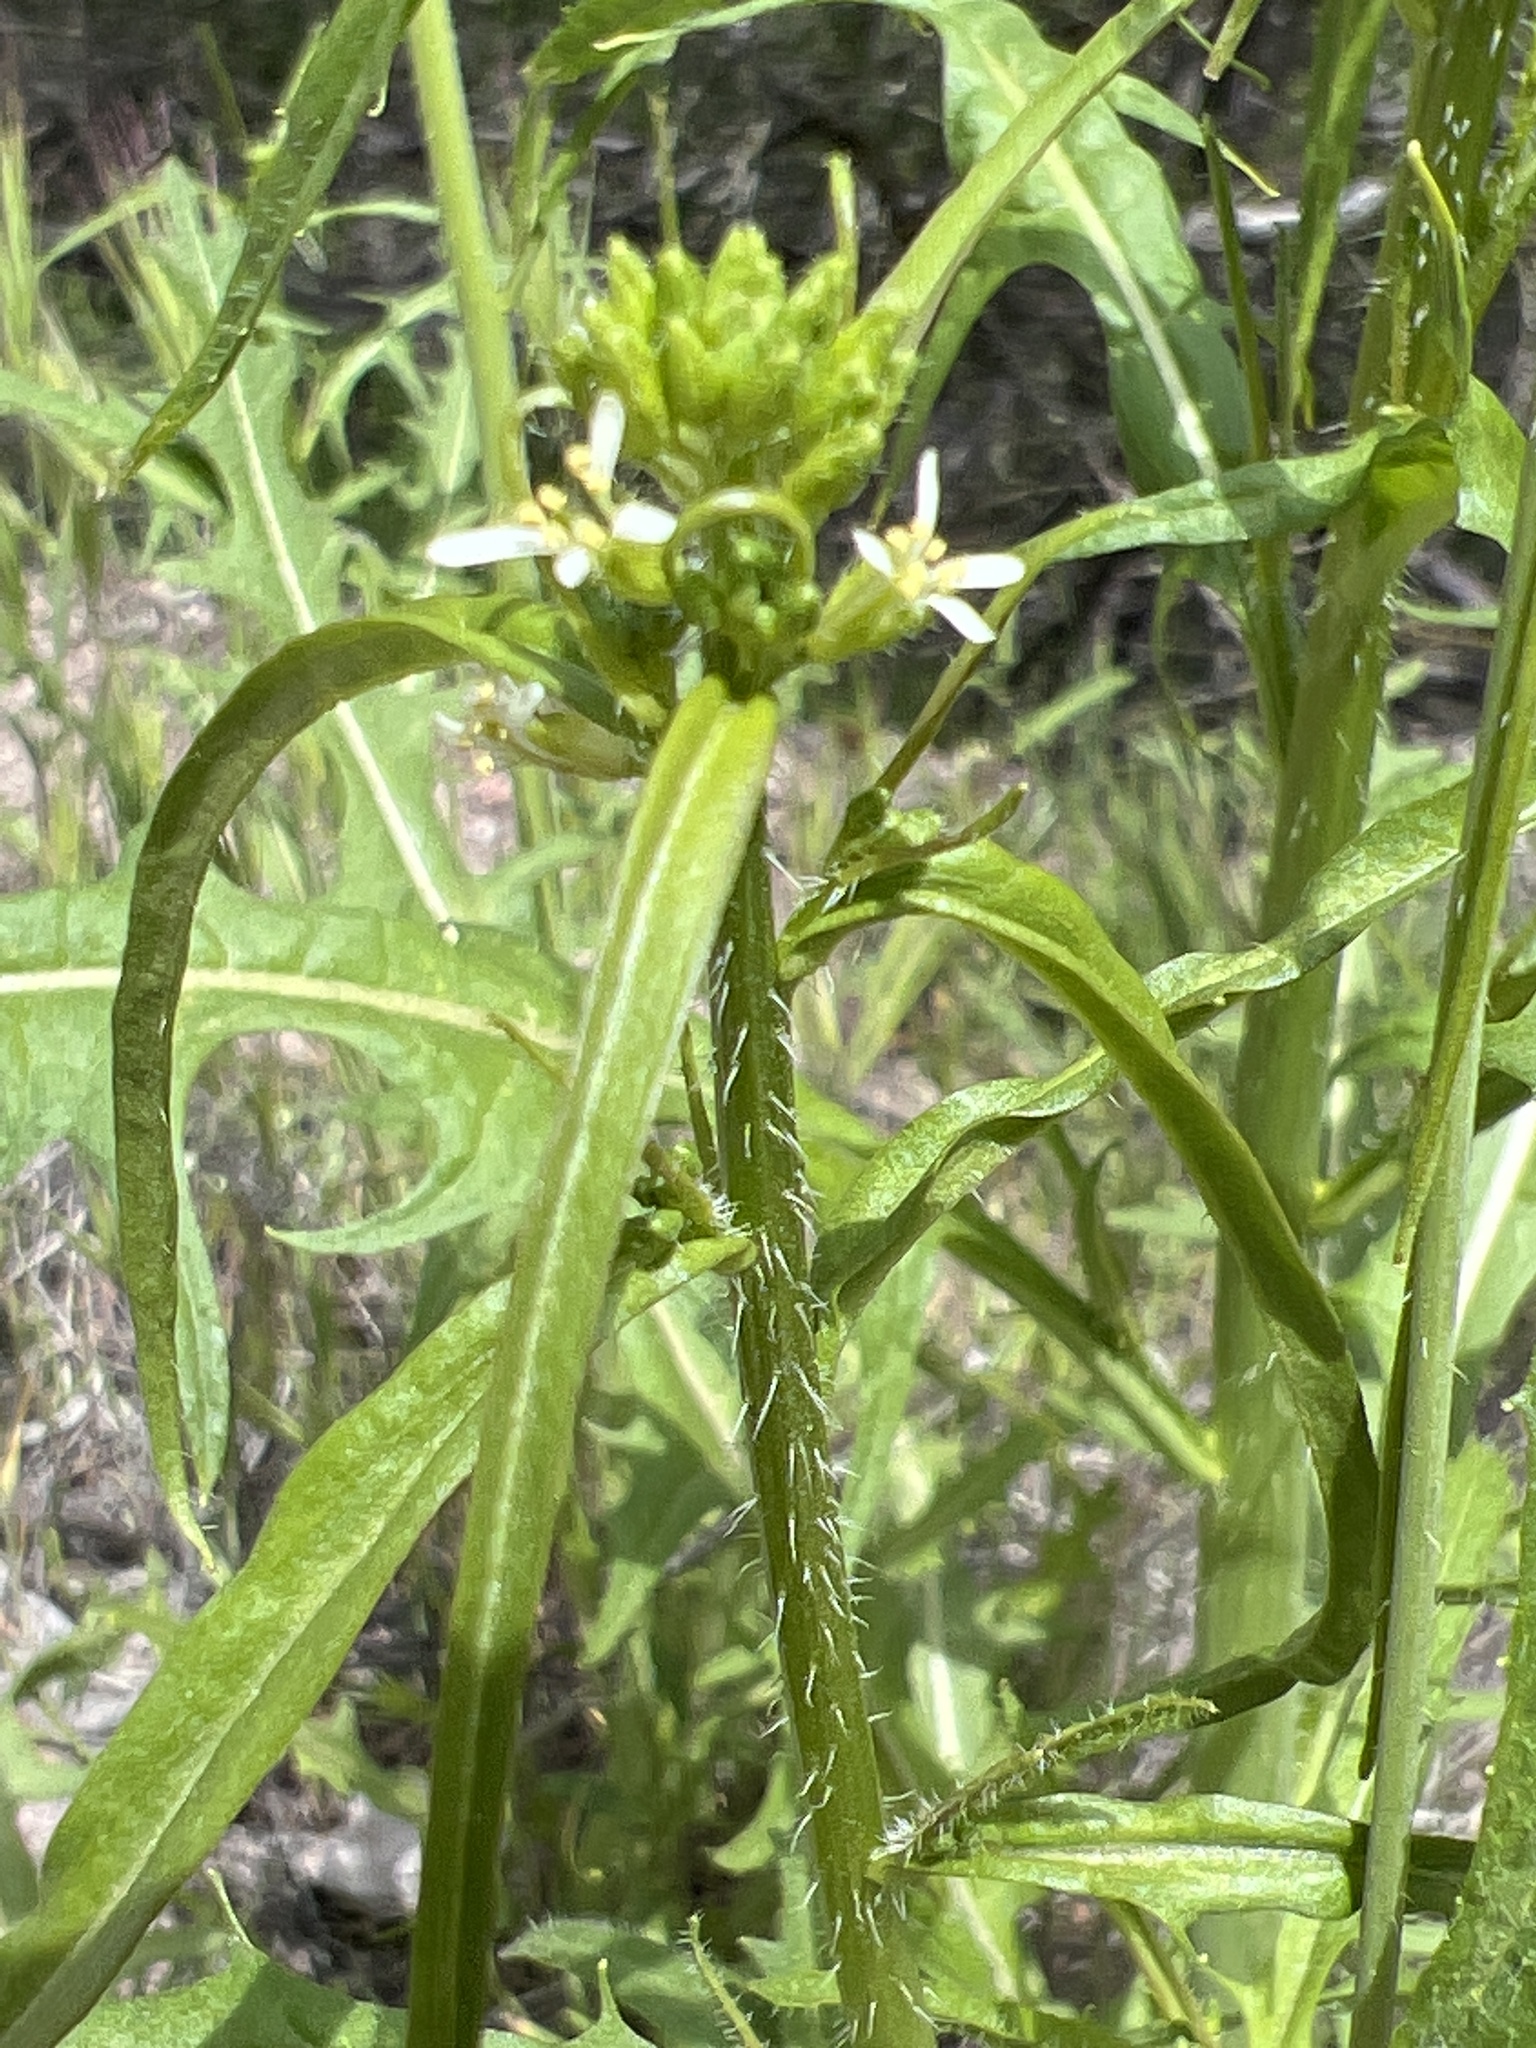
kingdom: Plantae
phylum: Tracheophyta
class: Magnoliopsida
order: Brassicales
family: Brassicaceae
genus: Streptanthus
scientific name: Streptanthus lasiophyllus
